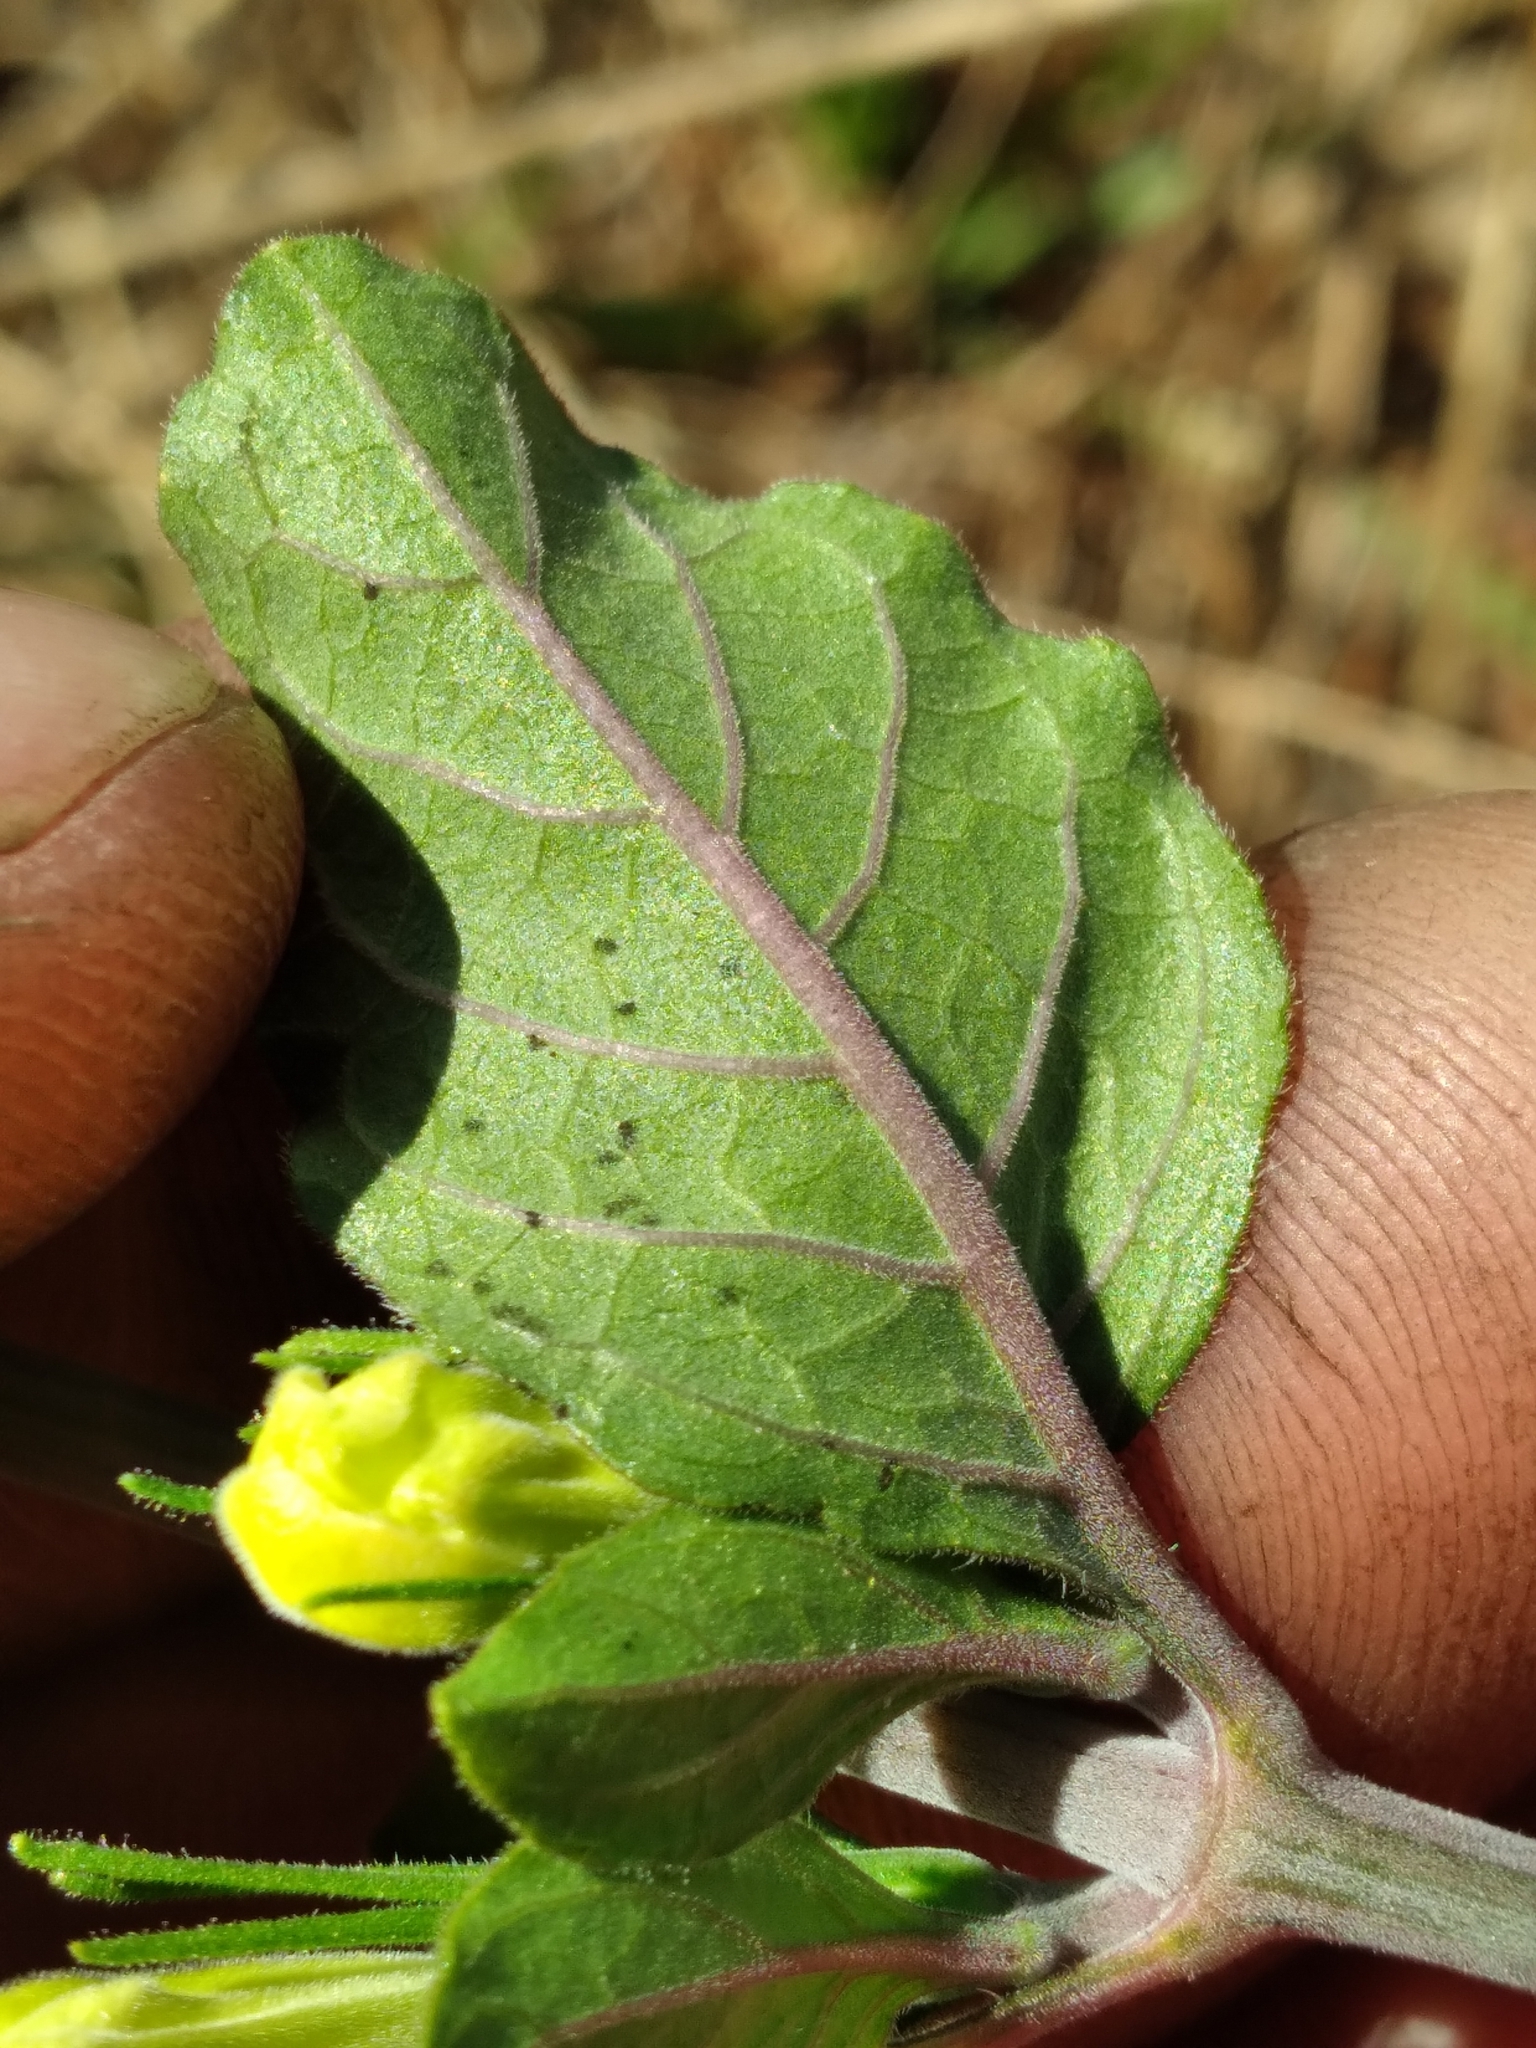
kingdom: Plantae
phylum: Tracheophyta
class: Magnoliopsida
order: Lamiales
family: Acanthaceae
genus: Ruellia
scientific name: Ruellia caroliniensis
